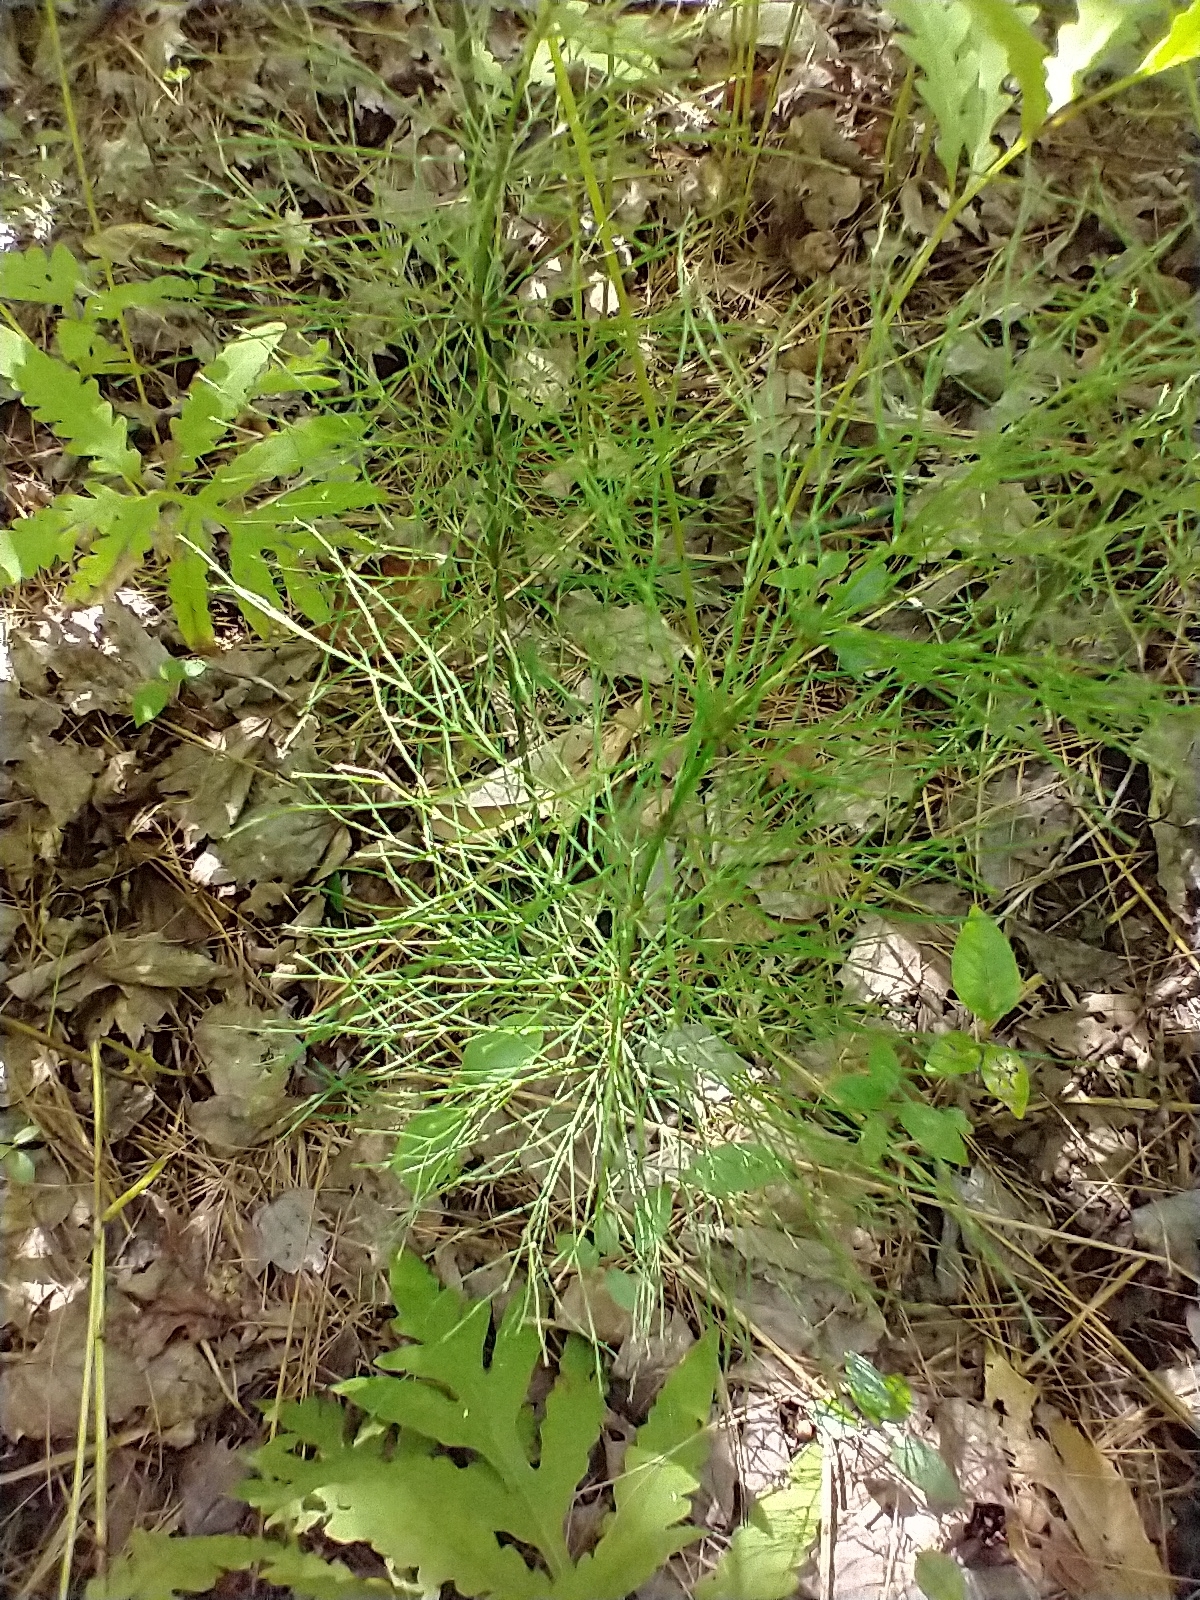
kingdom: Plantae
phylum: Tracheophyta
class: Polypodiopsida
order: Equisetales
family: Equisetaceae
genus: Equisetum
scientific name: Equisetum sylvaticum
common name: Wood horsetail
